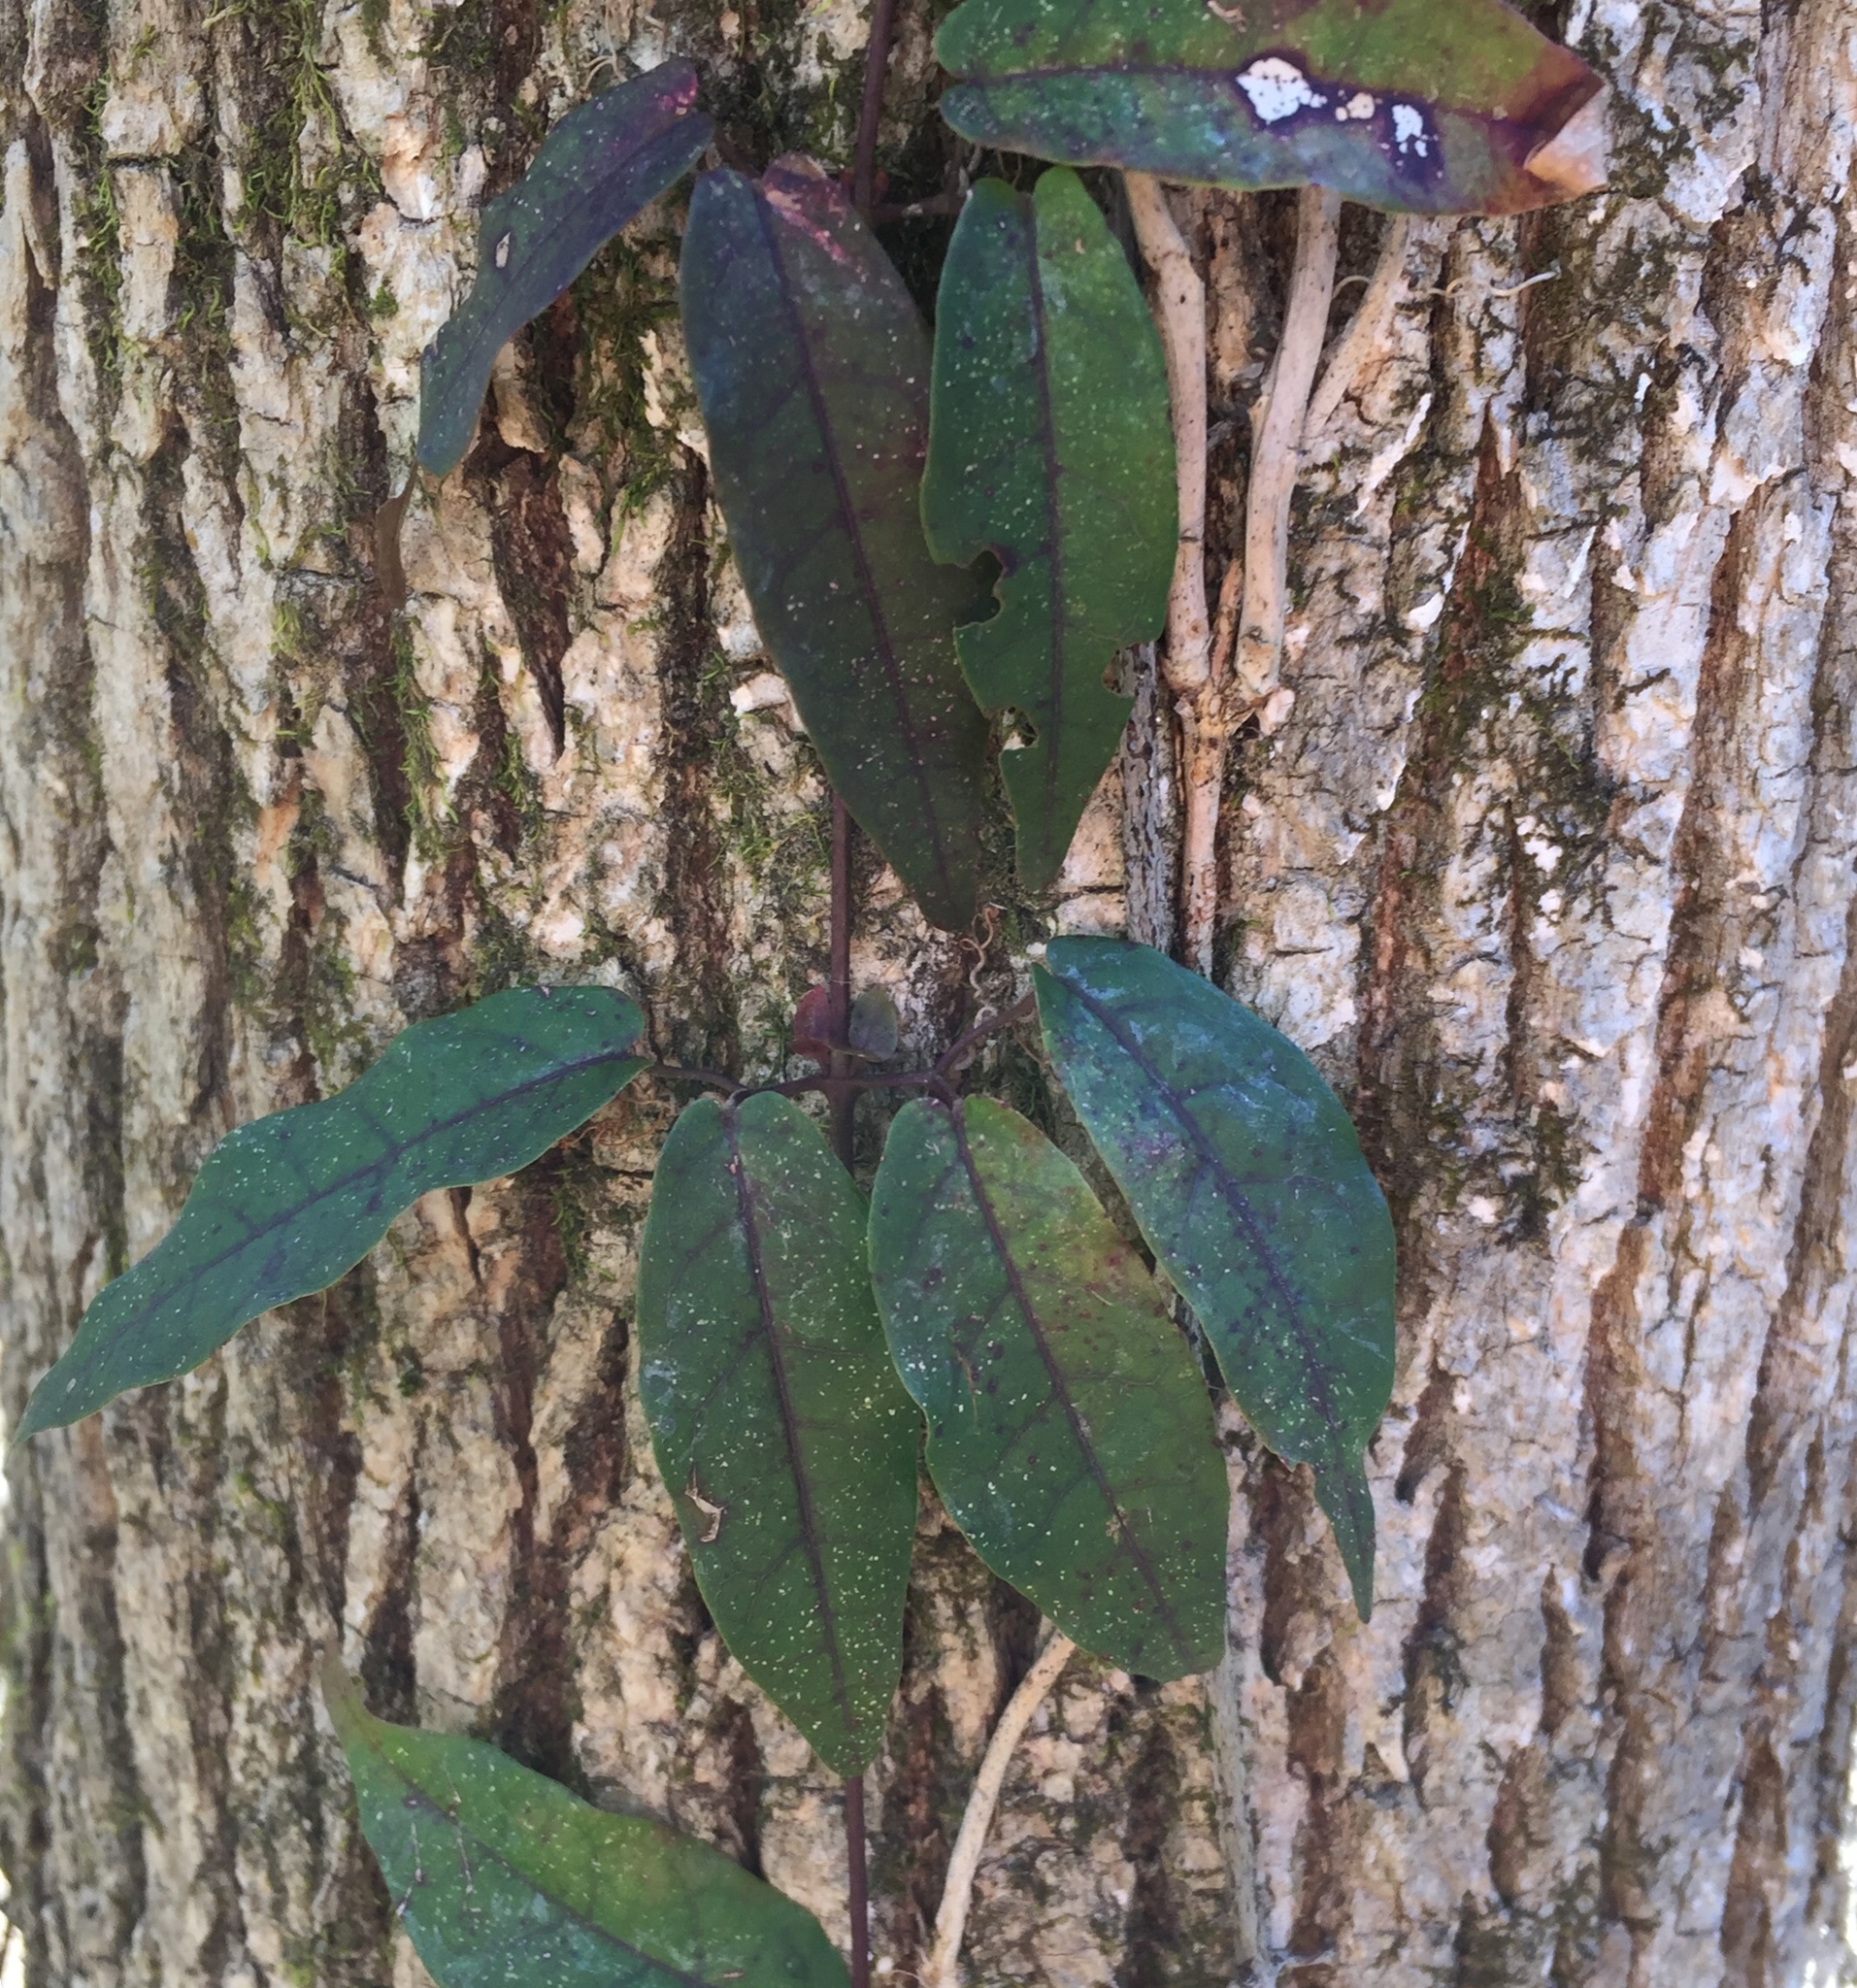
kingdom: Plantae
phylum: Tracheophyta
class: Magnoliopsida
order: Lamiales
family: Bignoniaceae
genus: Bignonia
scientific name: Bignonia capreolata
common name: Crossvine
